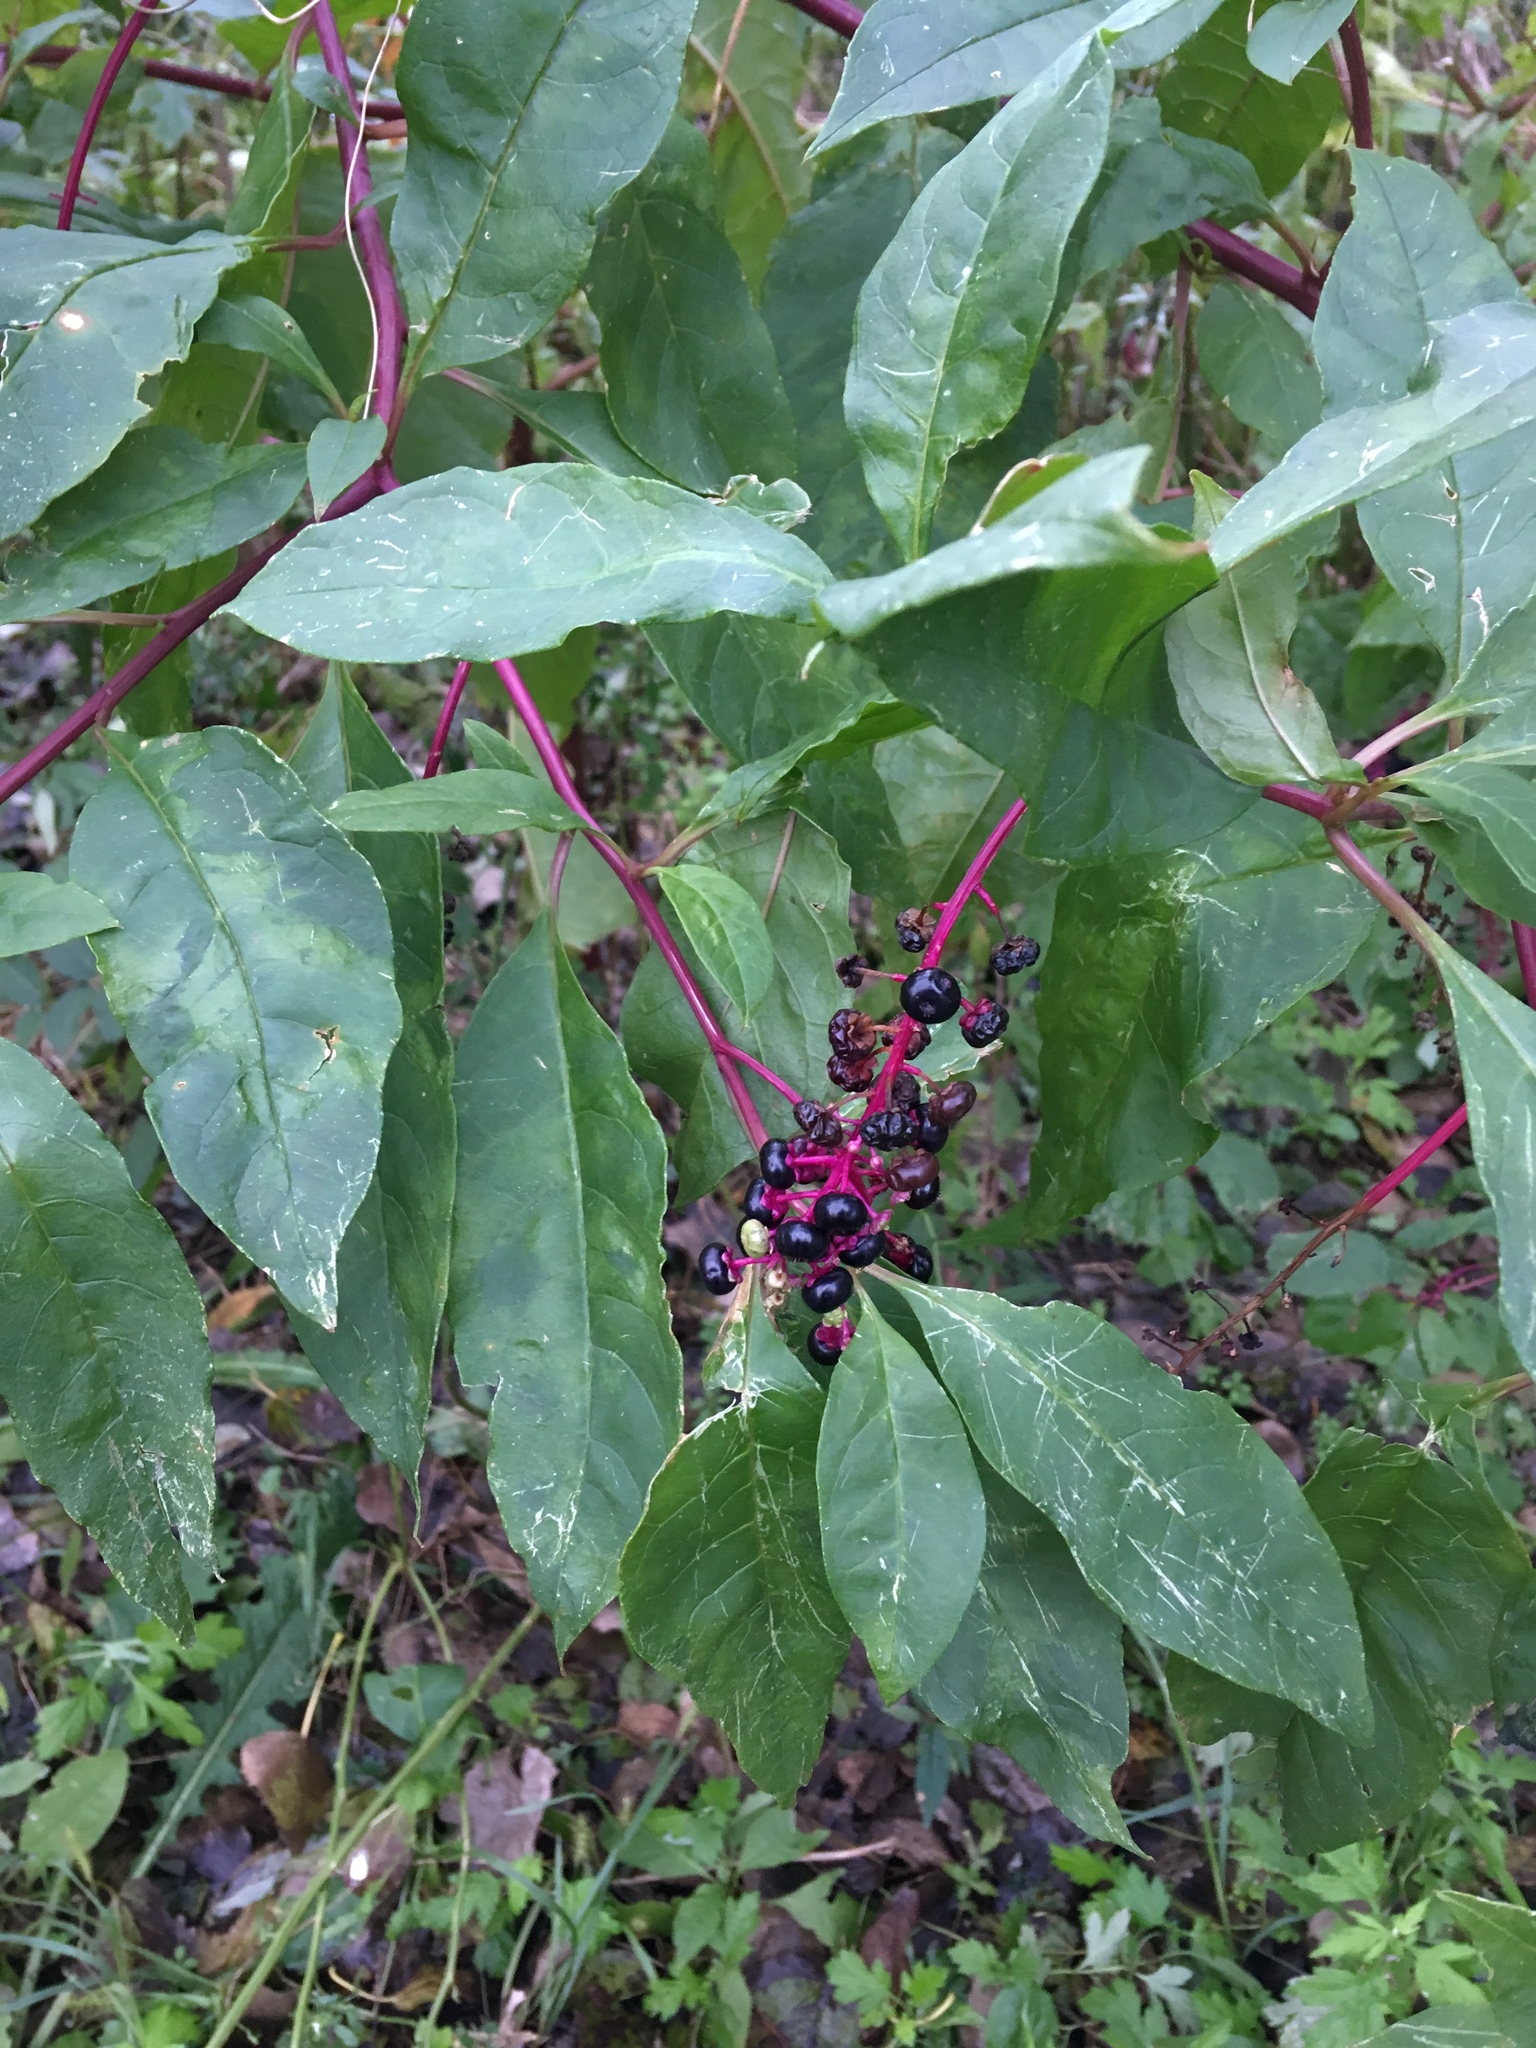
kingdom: Plantae
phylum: Tracheophyta
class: Magnoliopsida
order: Caryophyllales
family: Phytolaccaceae
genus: Phytolacca
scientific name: Phytolacca americana
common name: American pokeweed
